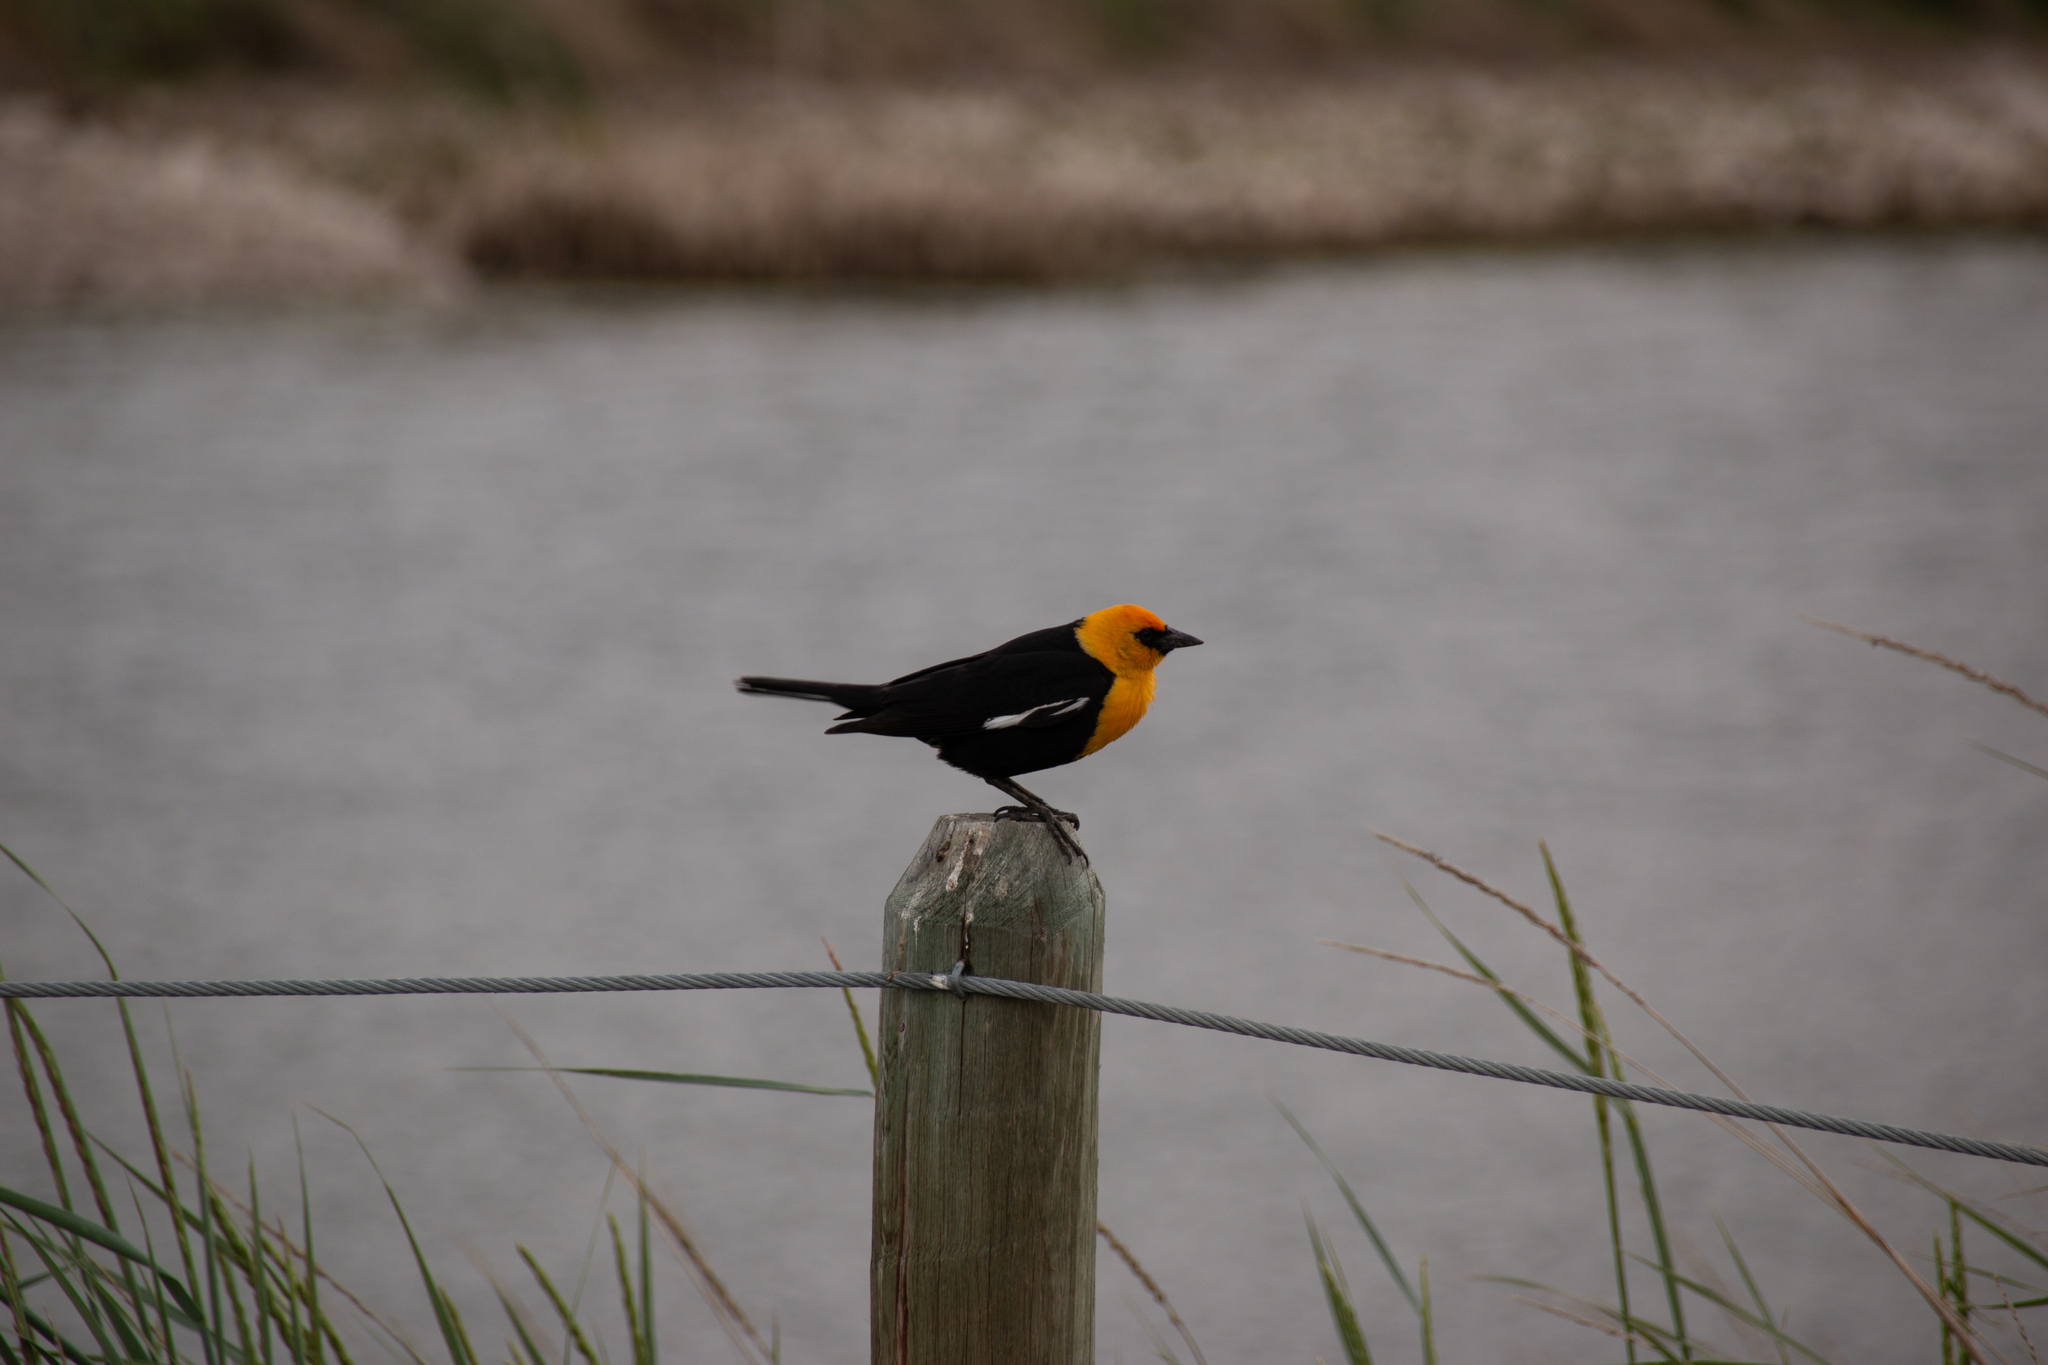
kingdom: Animalia
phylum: Chordata
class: Aves
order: Passeriformes
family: Icteridae
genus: Xanthocephalus
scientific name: Xanthocephalus xanthocephalus
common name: Yellow-headed blackbird
